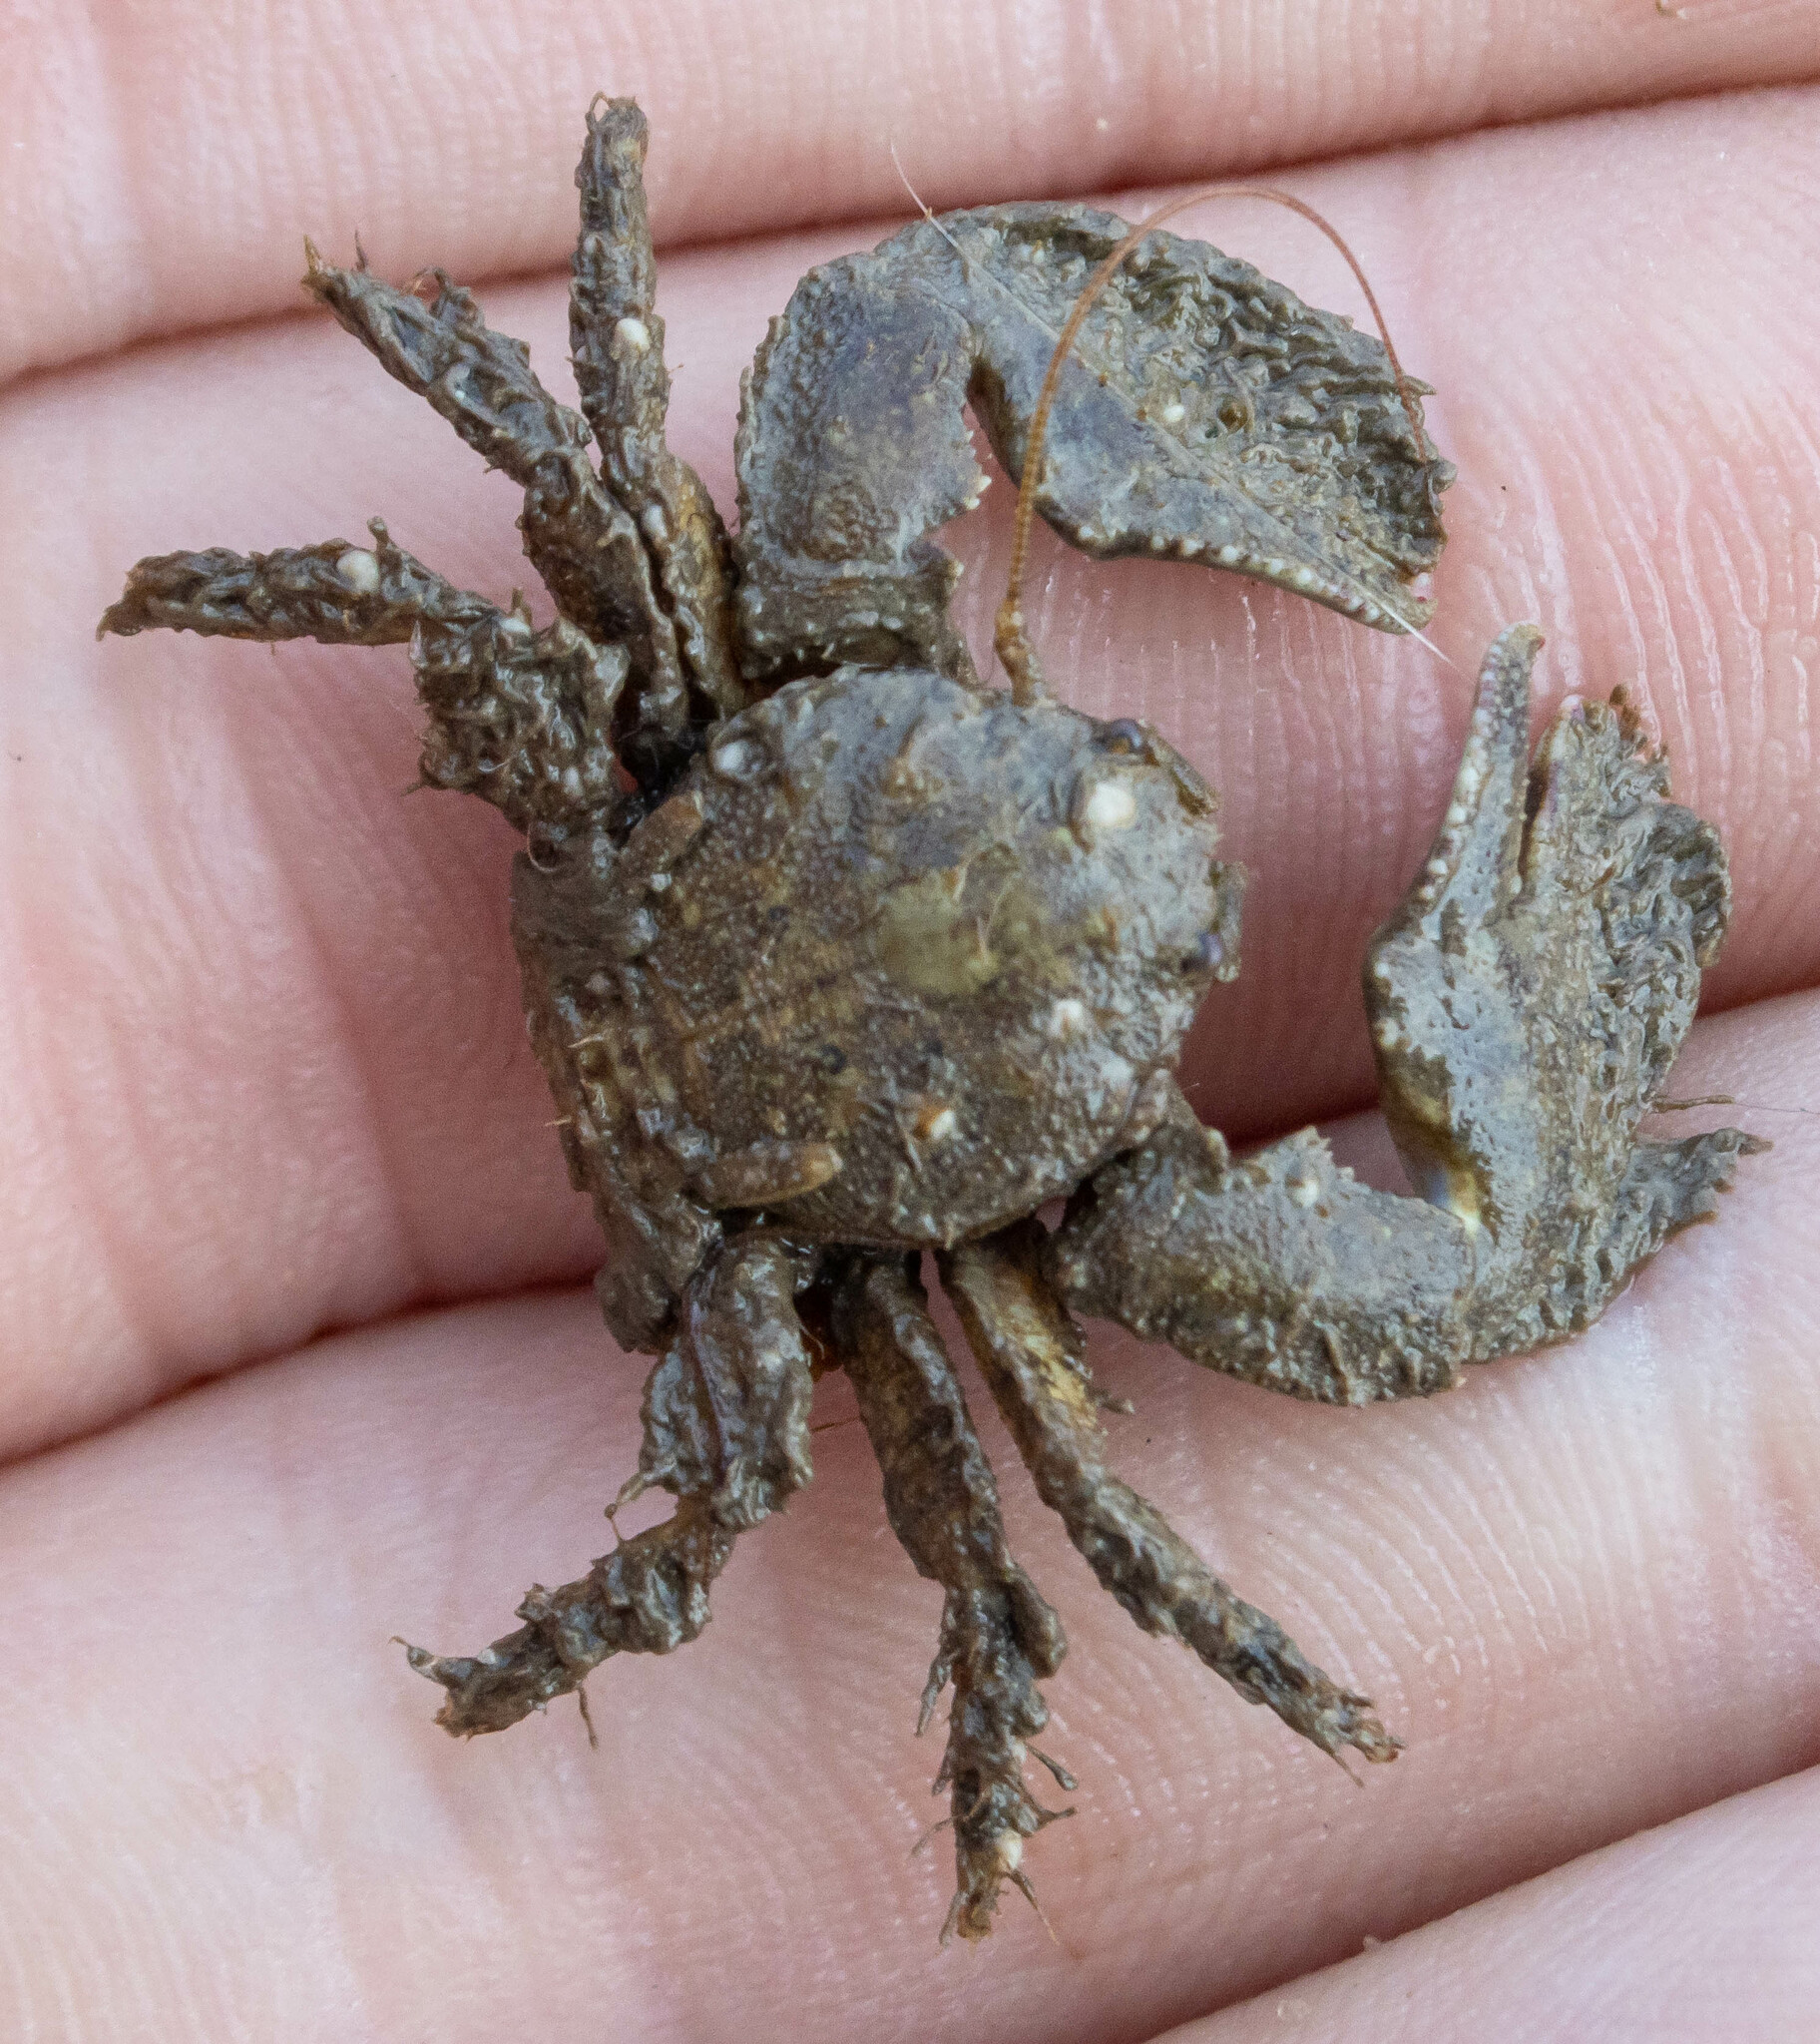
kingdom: Animalia
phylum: Arthropoda
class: Malacostraca
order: Decapoda
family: Porcellanidae
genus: Porcellana
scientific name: Porcellana platycheles
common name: Porcelain crab
